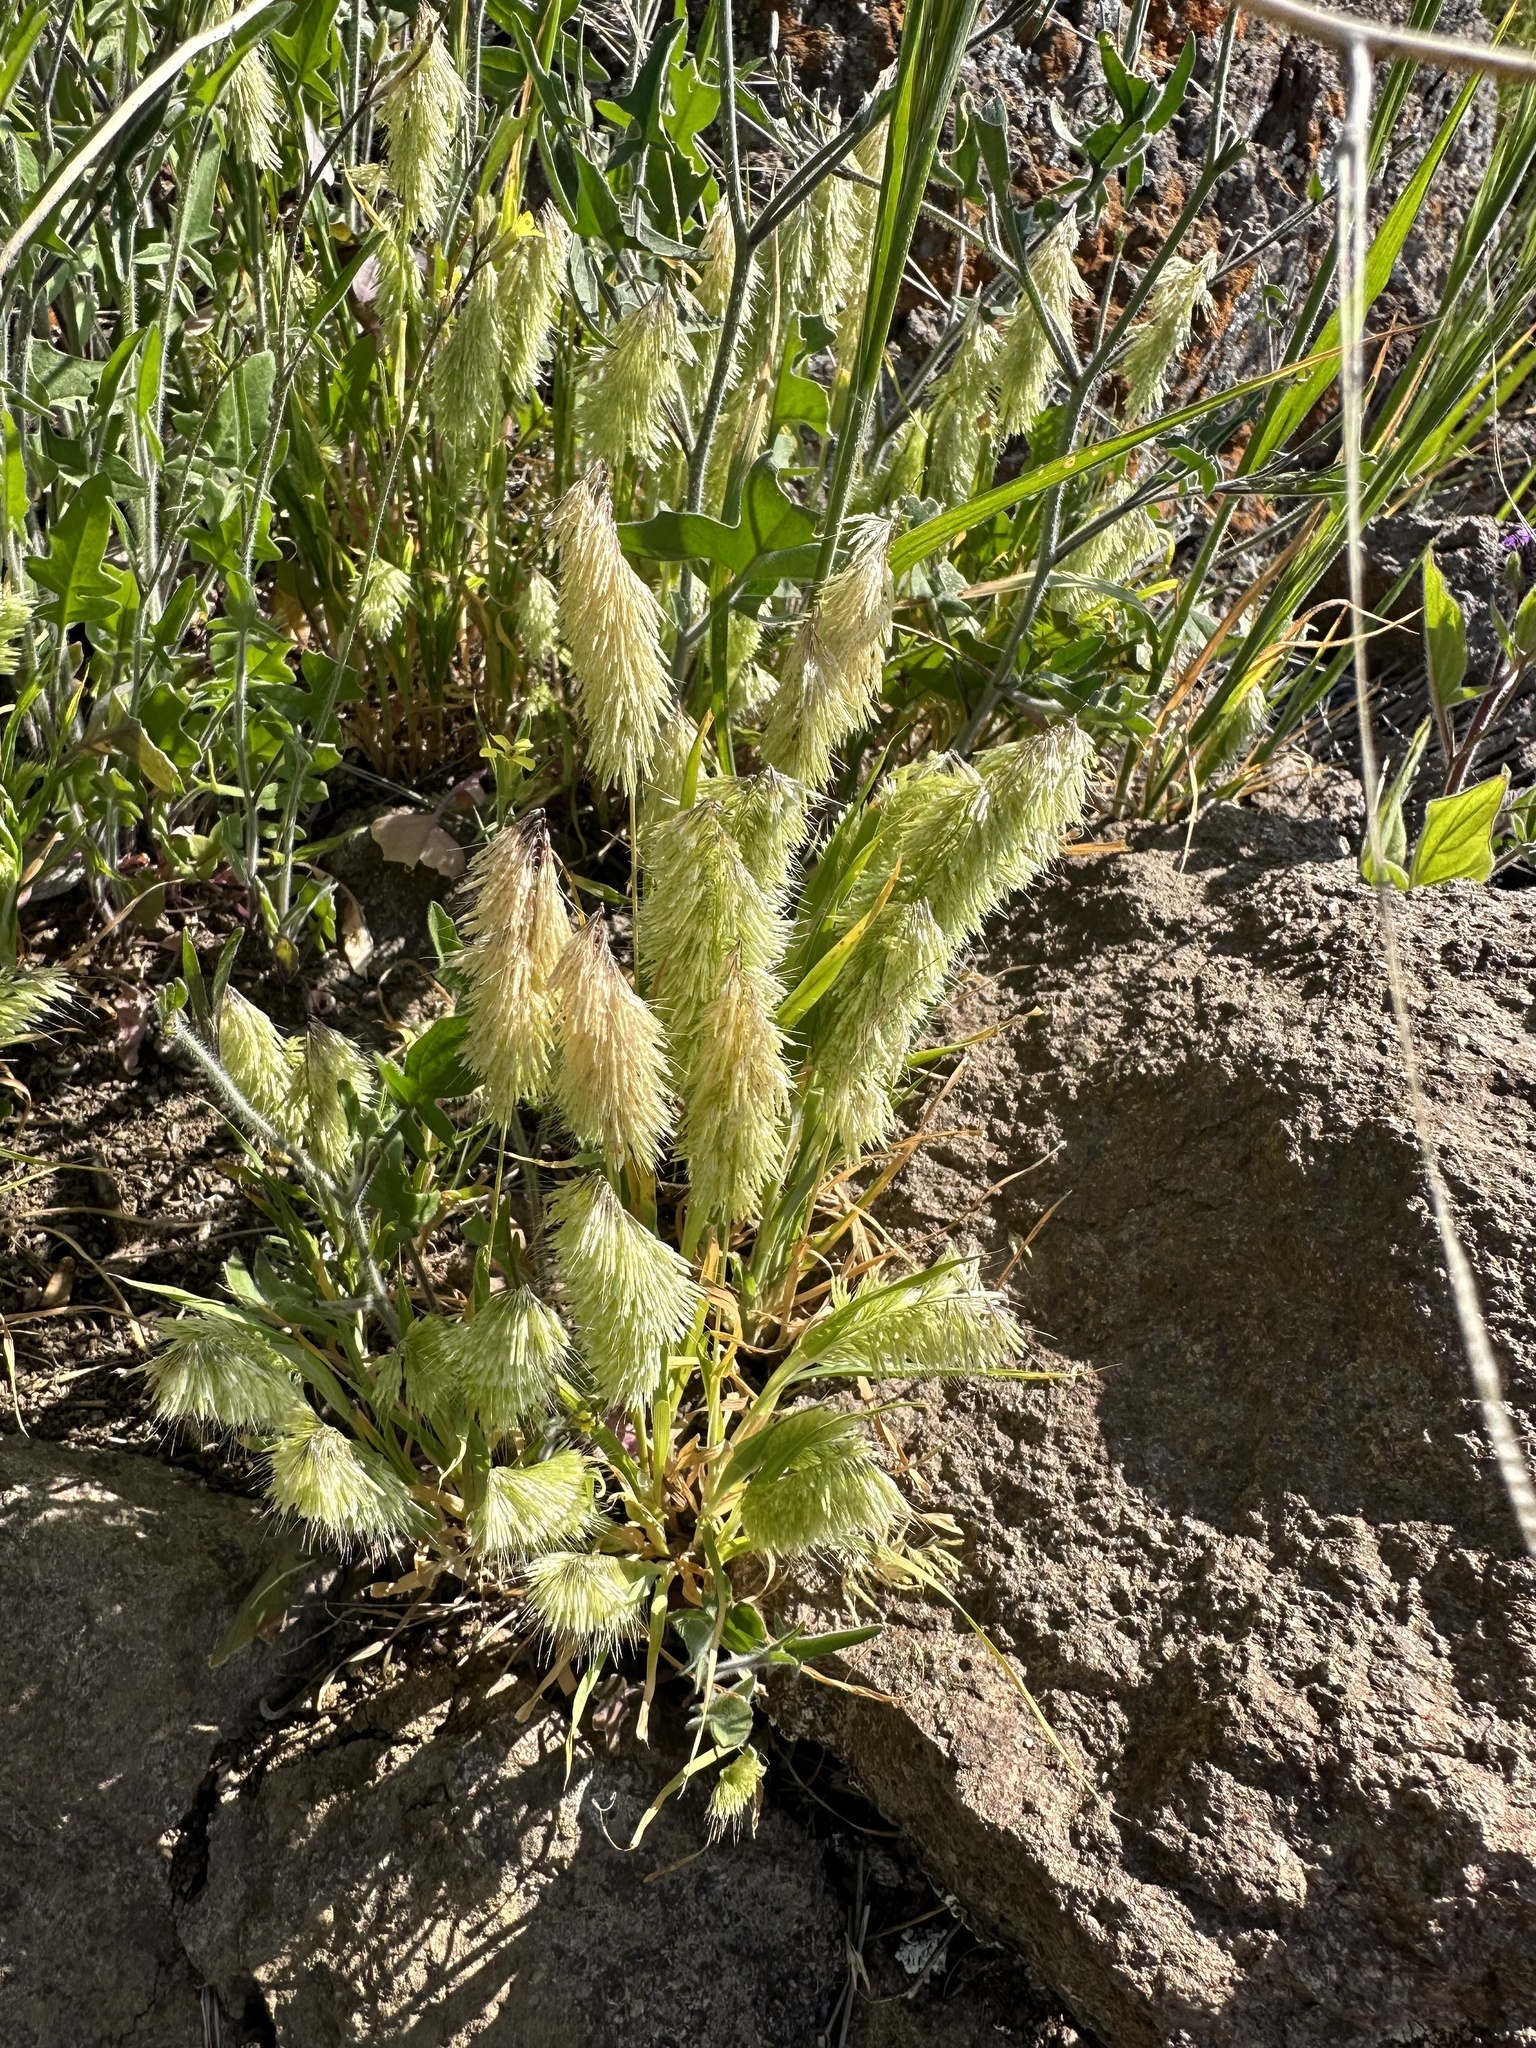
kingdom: Plantae
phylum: Tracheophyta
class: Liliopsida
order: Poales
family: Poaceae
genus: Lamarckia
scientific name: Lamarckia aurea
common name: Golden dog's-tail
